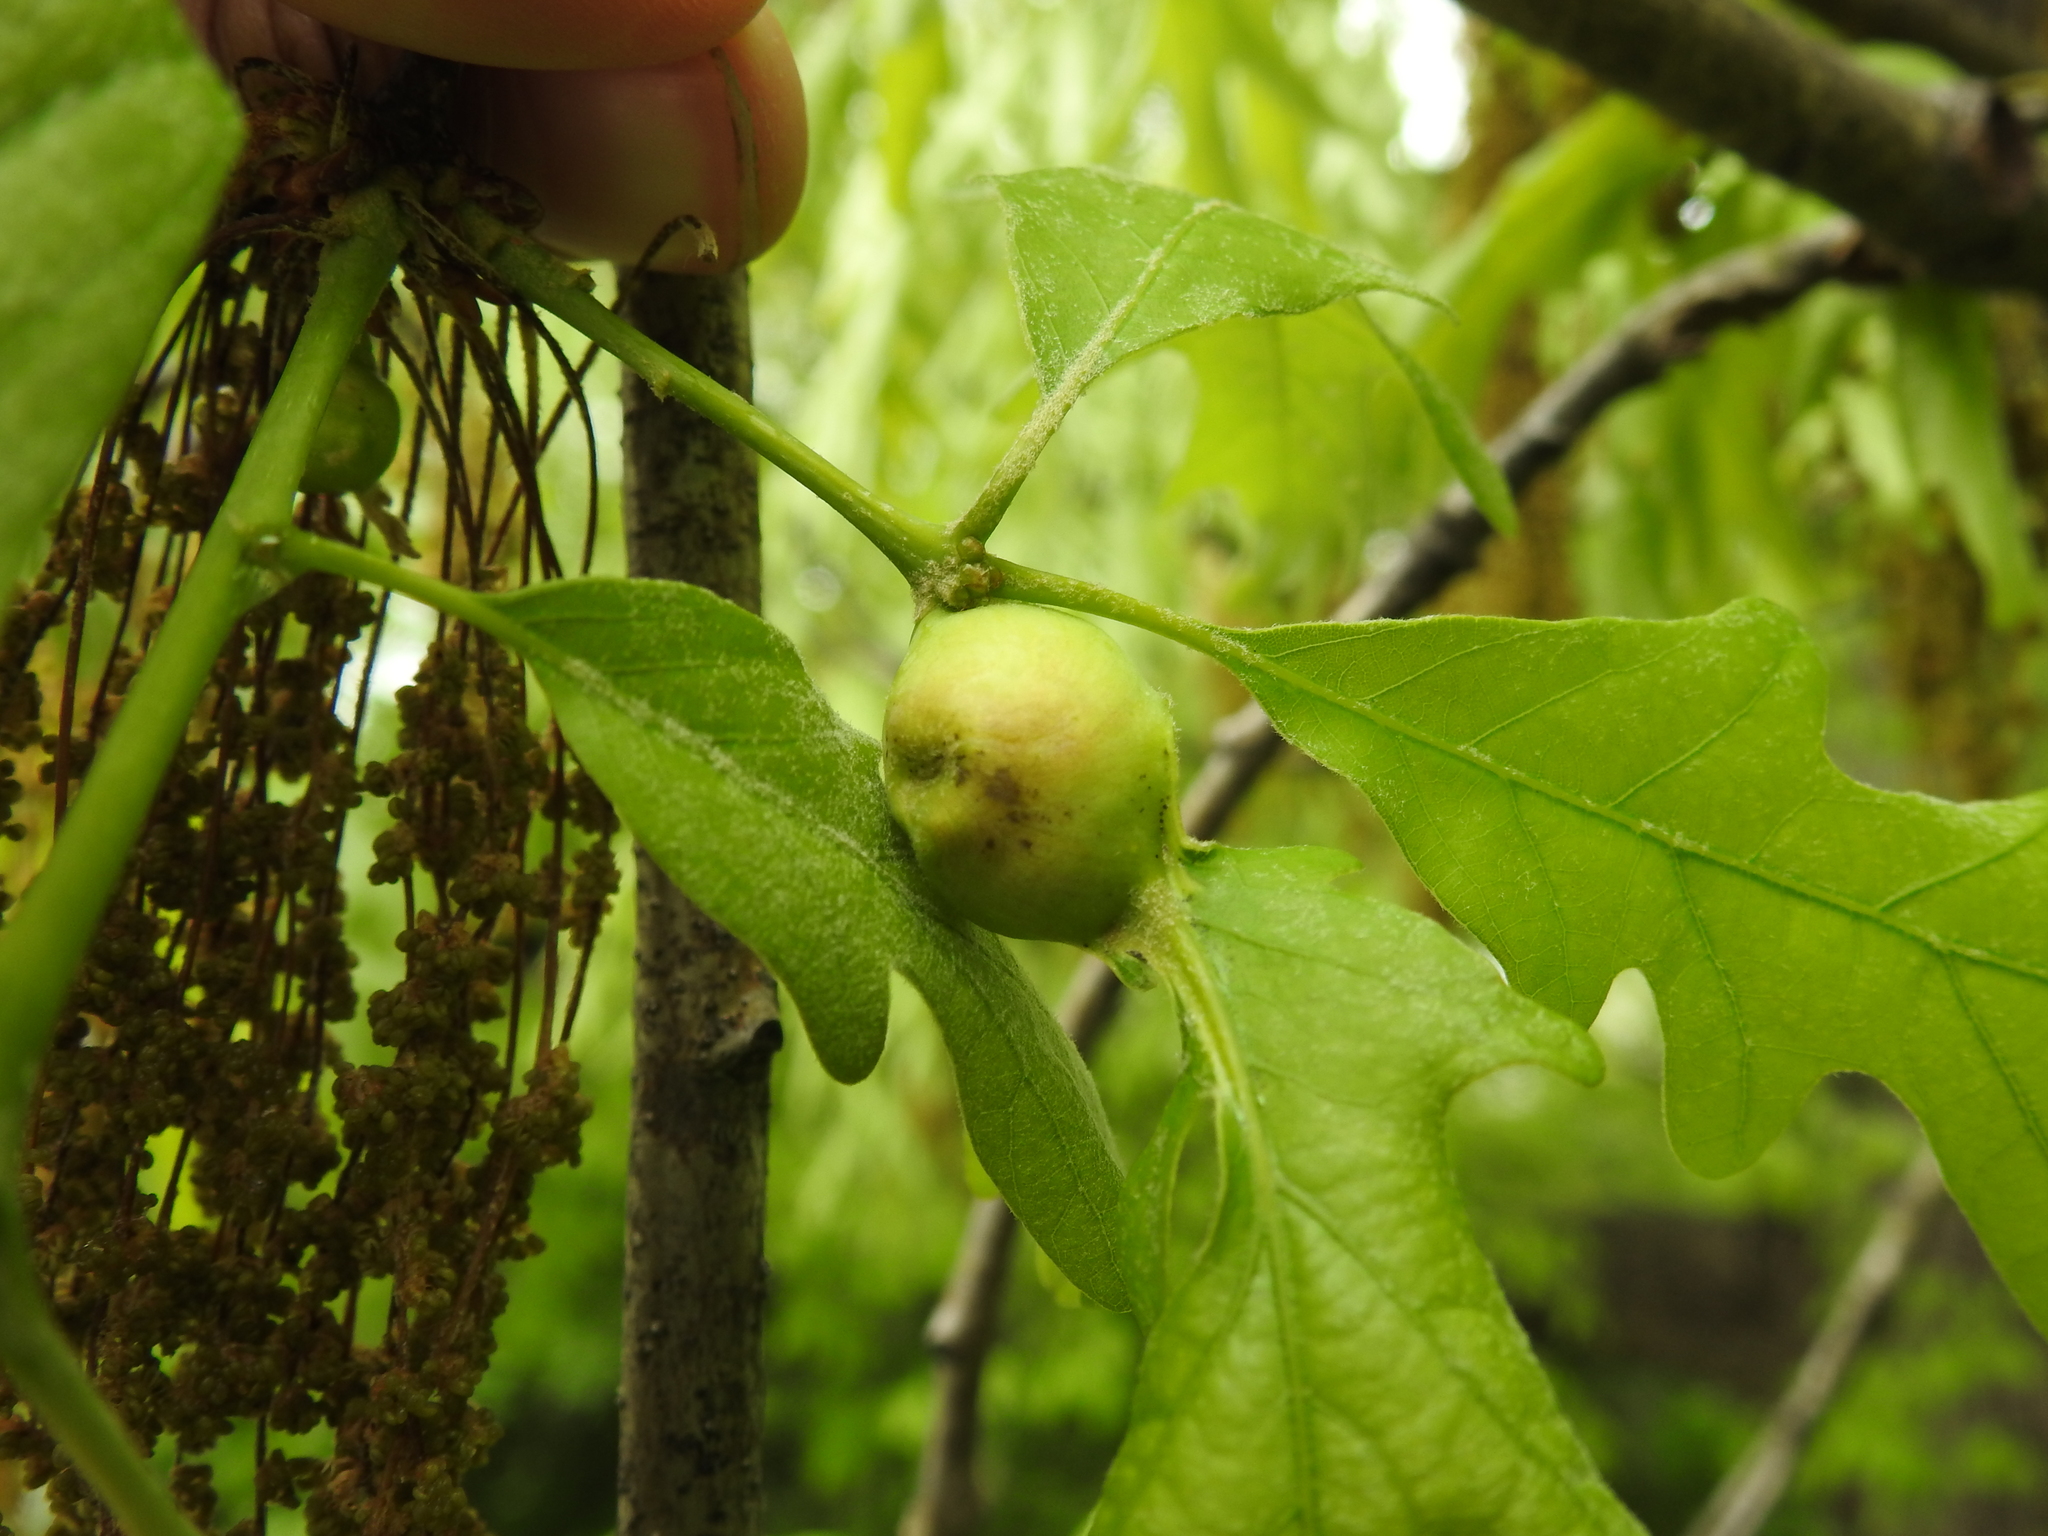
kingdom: Animalia
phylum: Arthropoda
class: Insecta
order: Hymenoptera
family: Cynipidae
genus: Andricus
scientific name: Andricus
